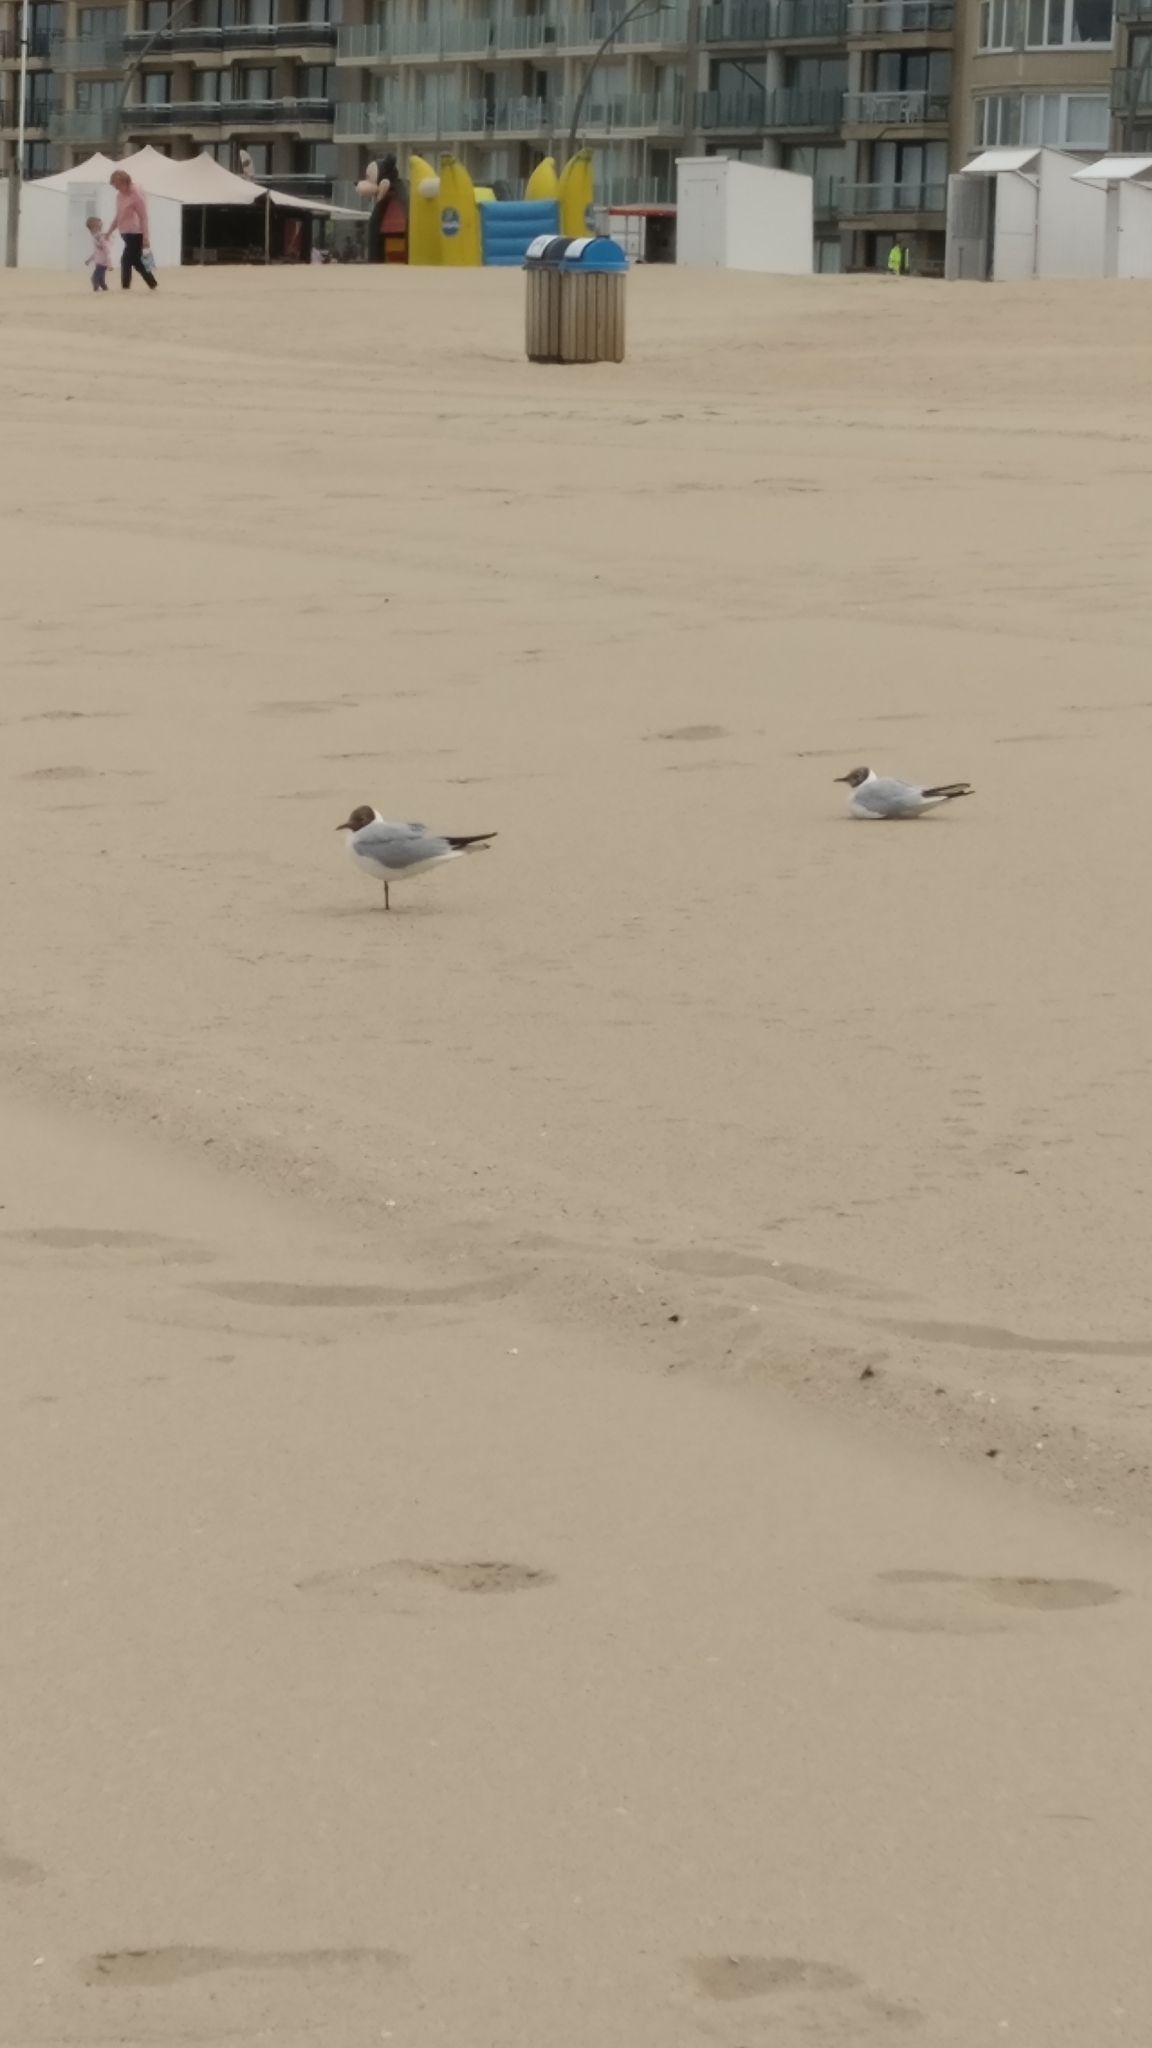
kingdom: Animalia
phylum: Chordata
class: Aves
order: Charadriiformes
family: Laridae
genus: Chroicocephalus
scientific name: Chroicocephalus ridibundus
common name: Black-headed gull
